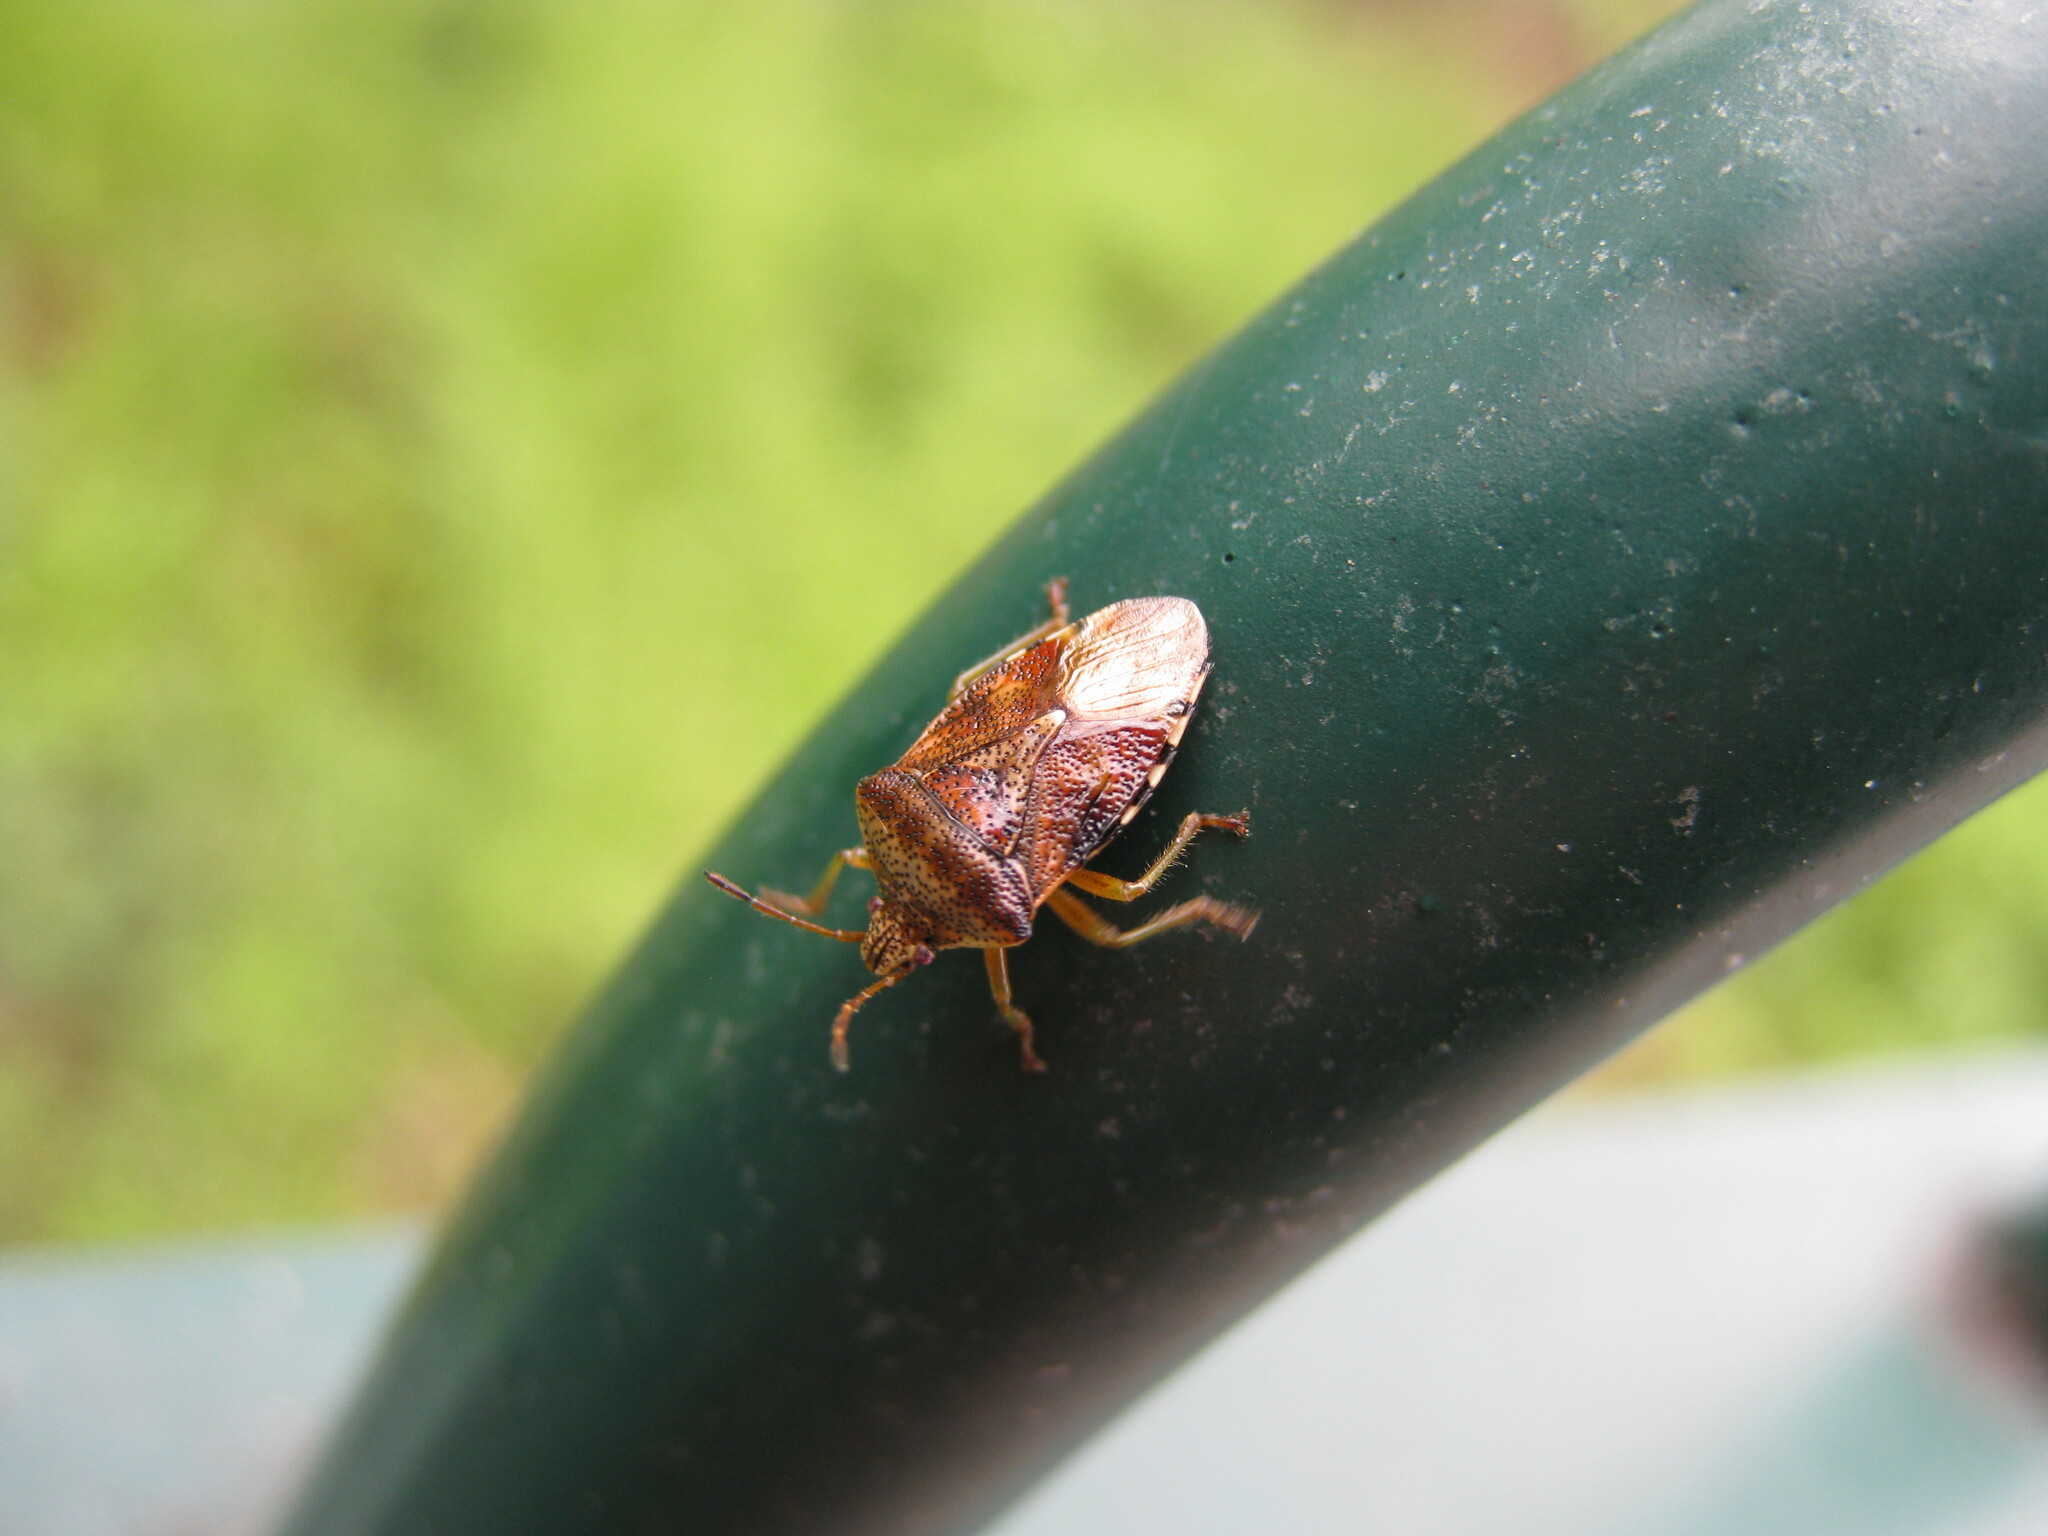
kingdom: Animalia
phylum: Arthropoda
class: Insecta
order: Hemiptera
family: Acanthosomatidae
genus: Elasmucha
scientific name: Elasmucha grisea
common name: Parent bug
